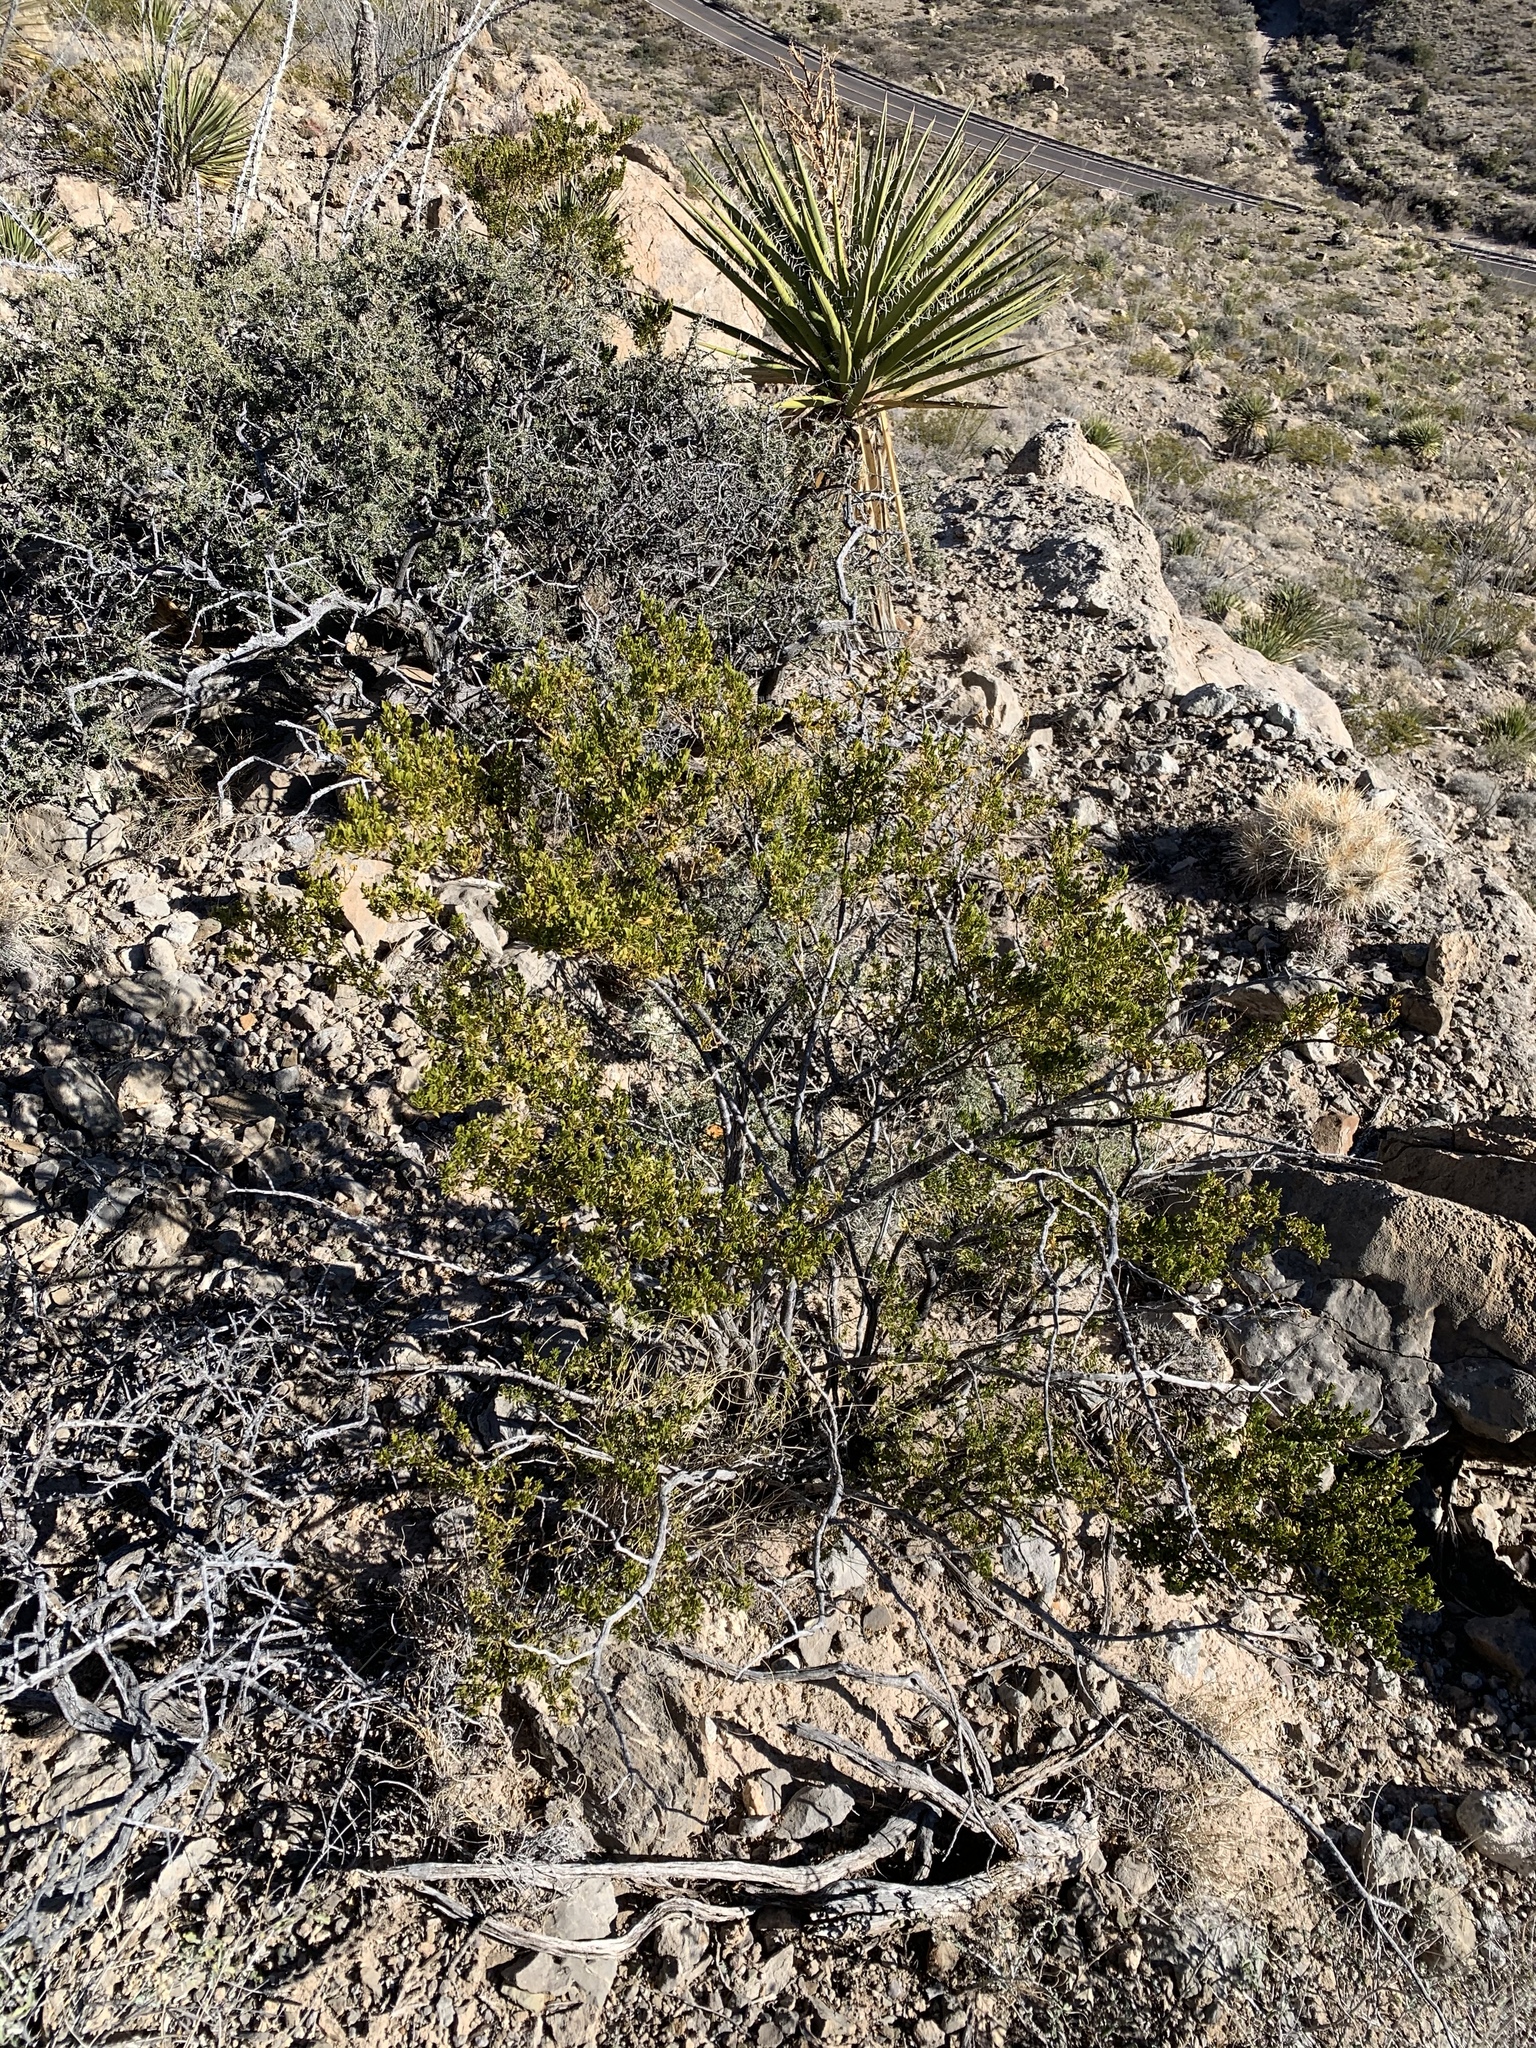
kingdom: Plantae
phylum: Tracheophyta
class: Magnoliopsida
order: Zygophyllales
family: Zygophyllaceae
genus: Larrea
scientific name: Larrea tridentata
